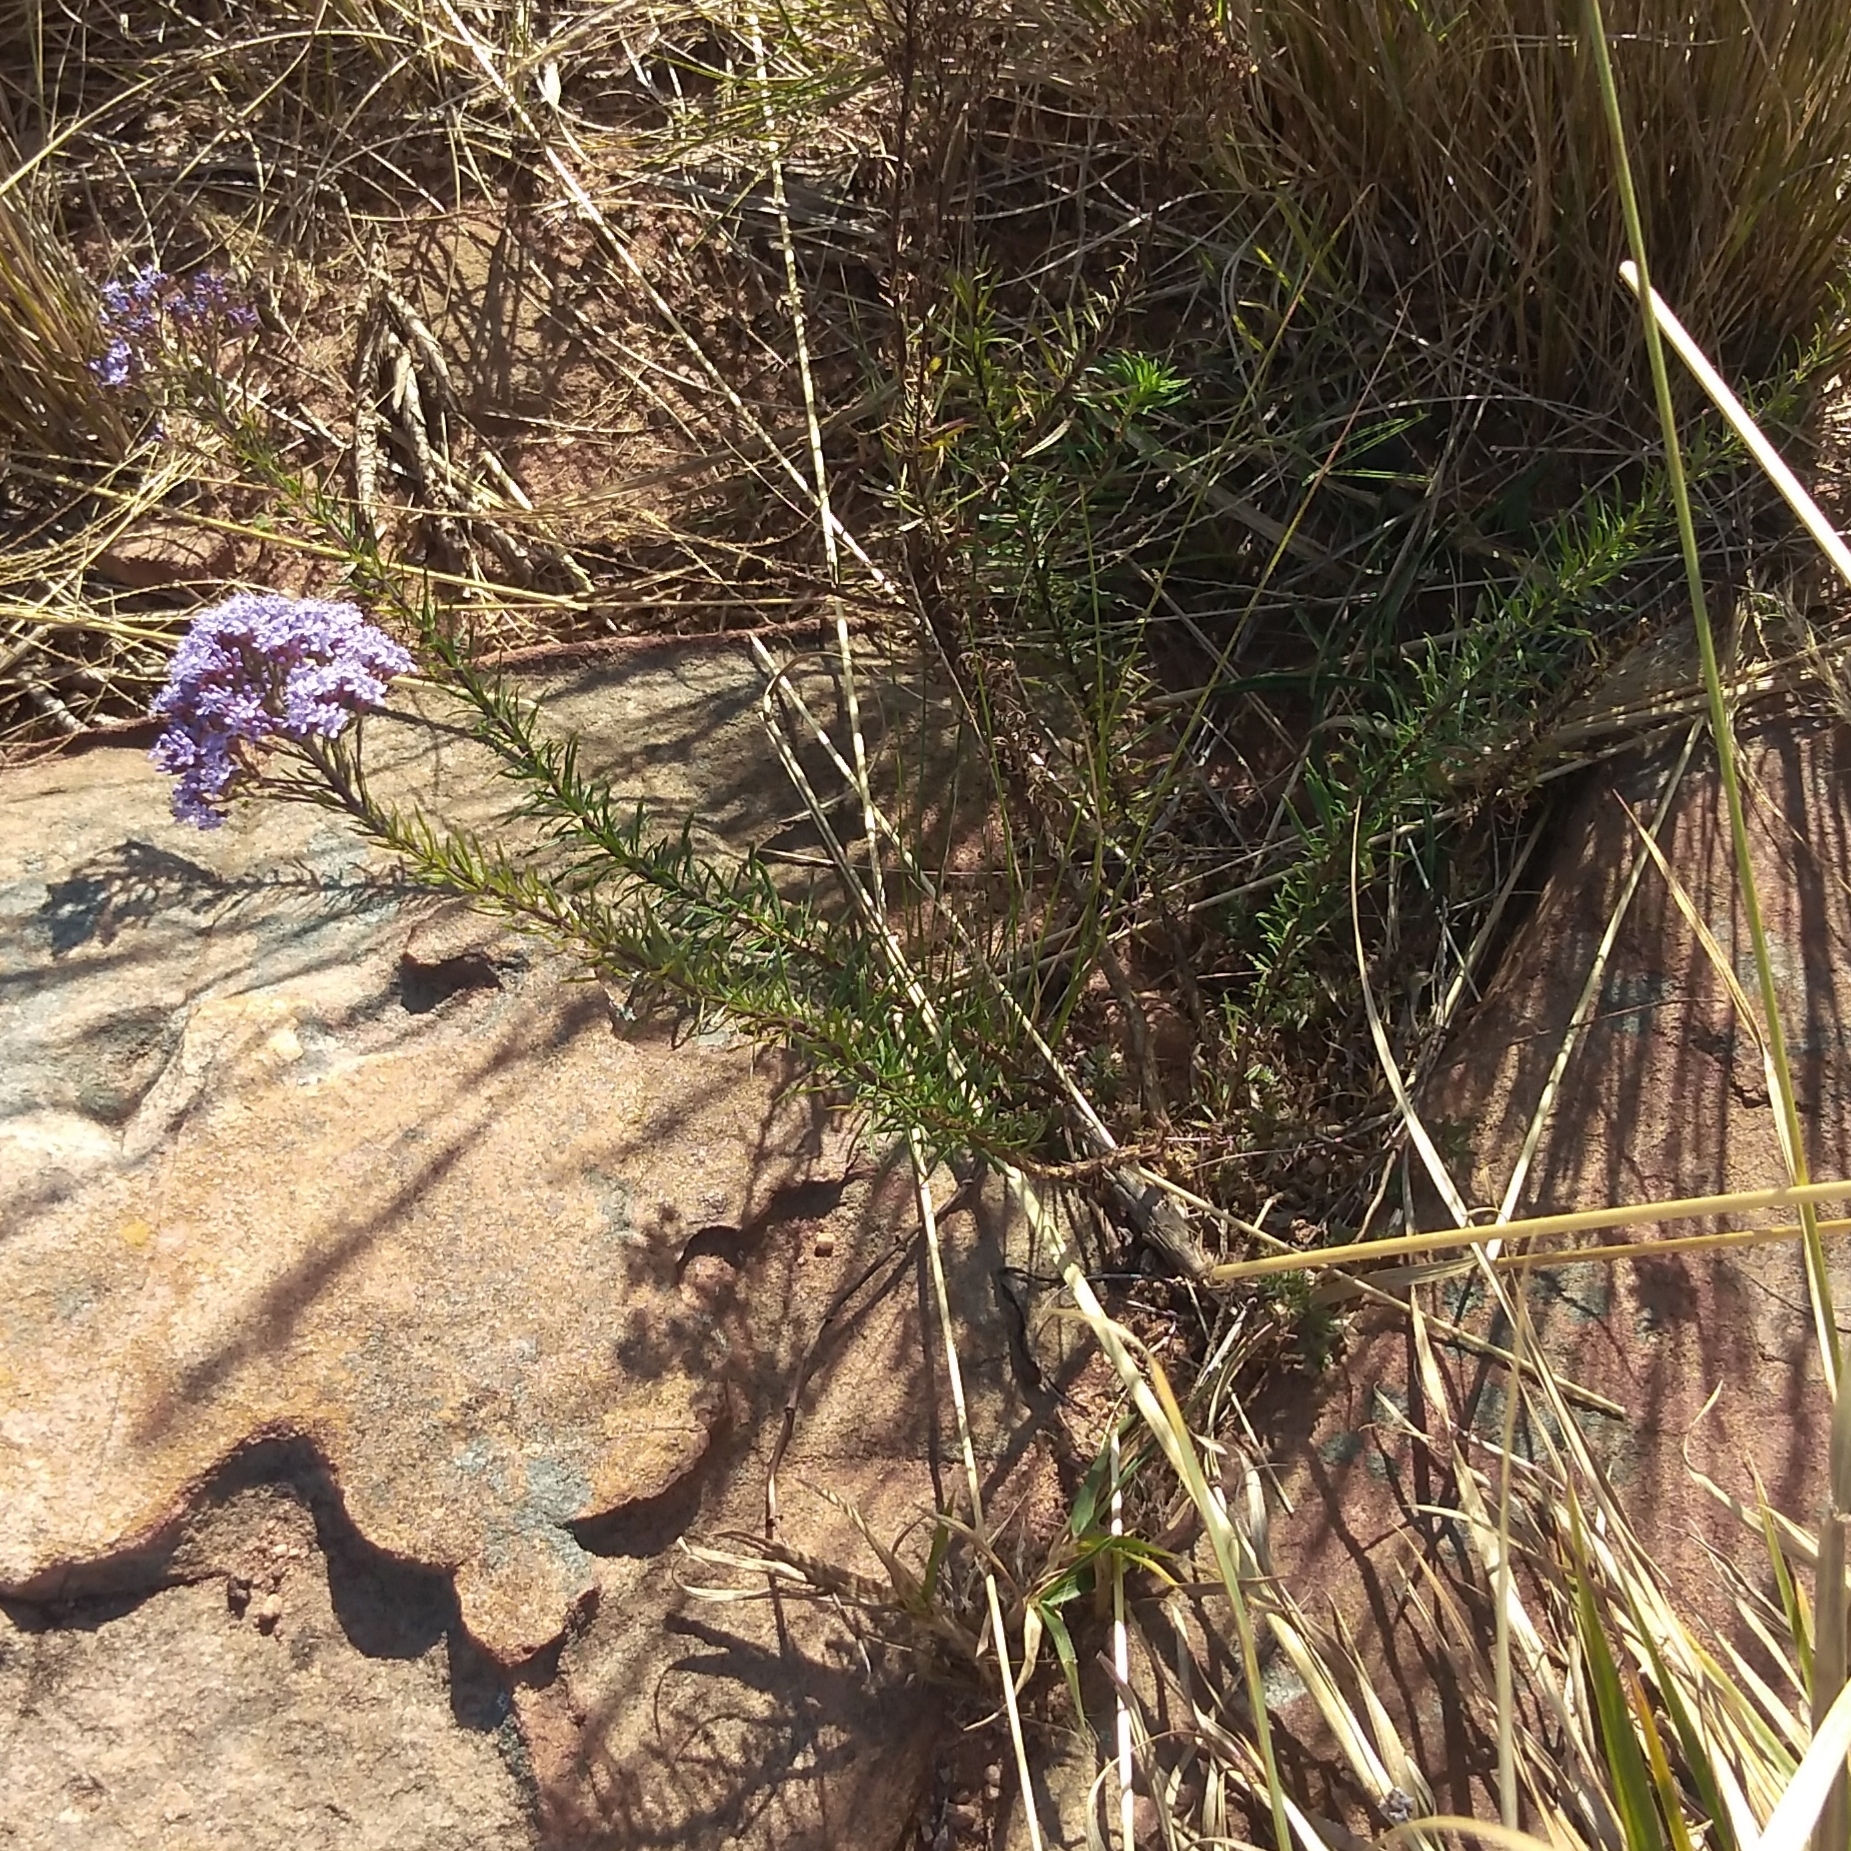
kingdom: Plantae
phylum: Tracheophyta
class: Magnoliopsida
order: Lamiales
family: Scrophulariaceae
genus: Tetraselago
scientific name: Tetraselago natalensis
